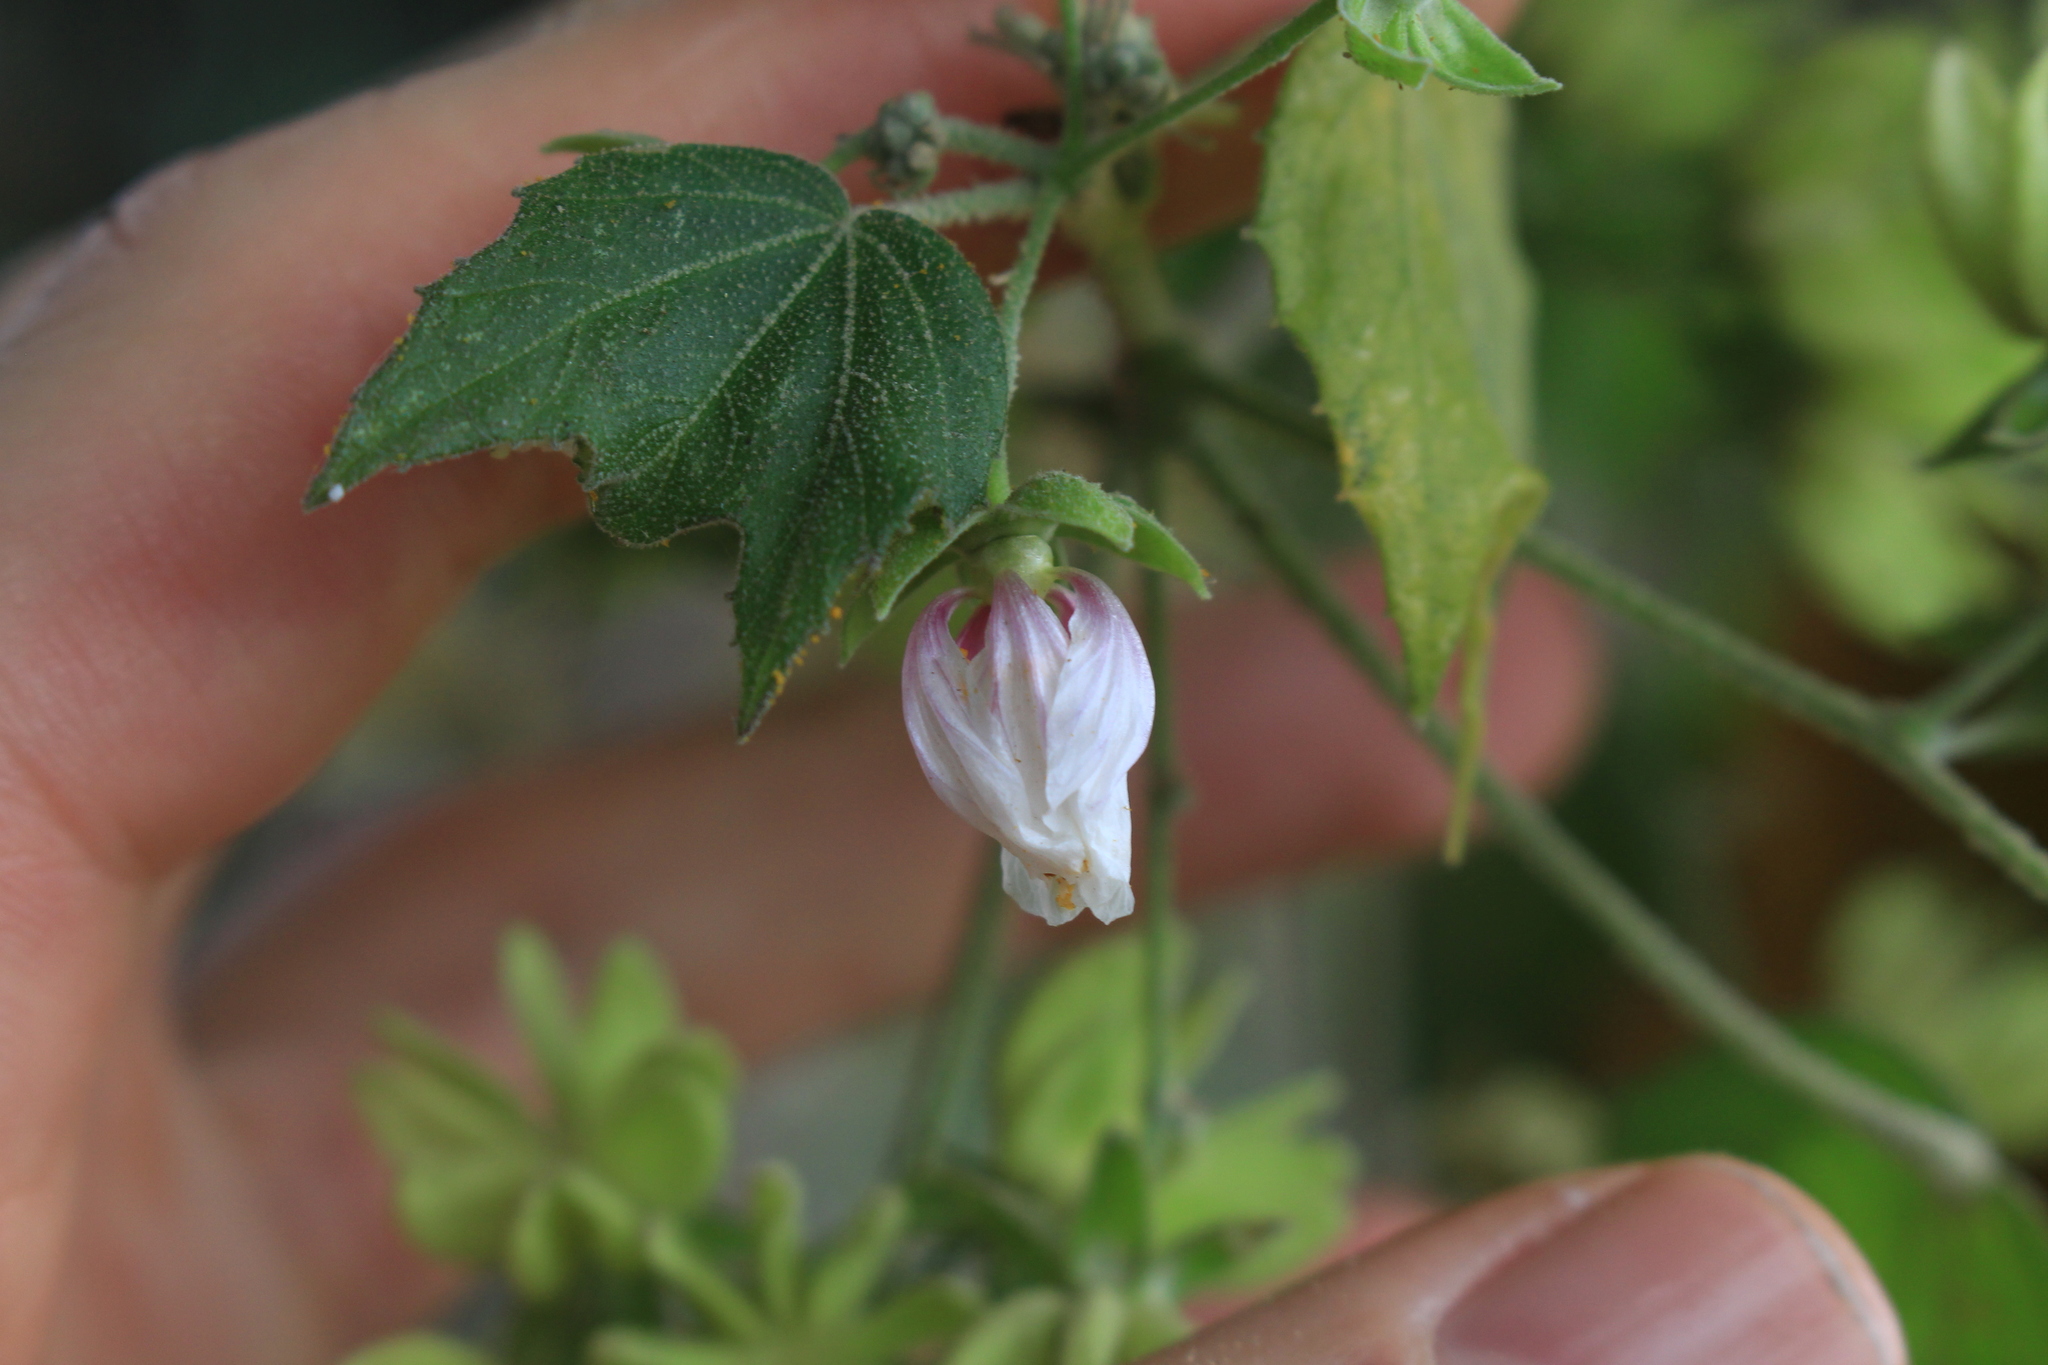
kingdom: Plantae
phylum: Tracheophyta
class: Magnoliopsida
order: Malvales
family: Malvaceae
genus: Robinsonella
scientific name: Robinsonella lindeniana
